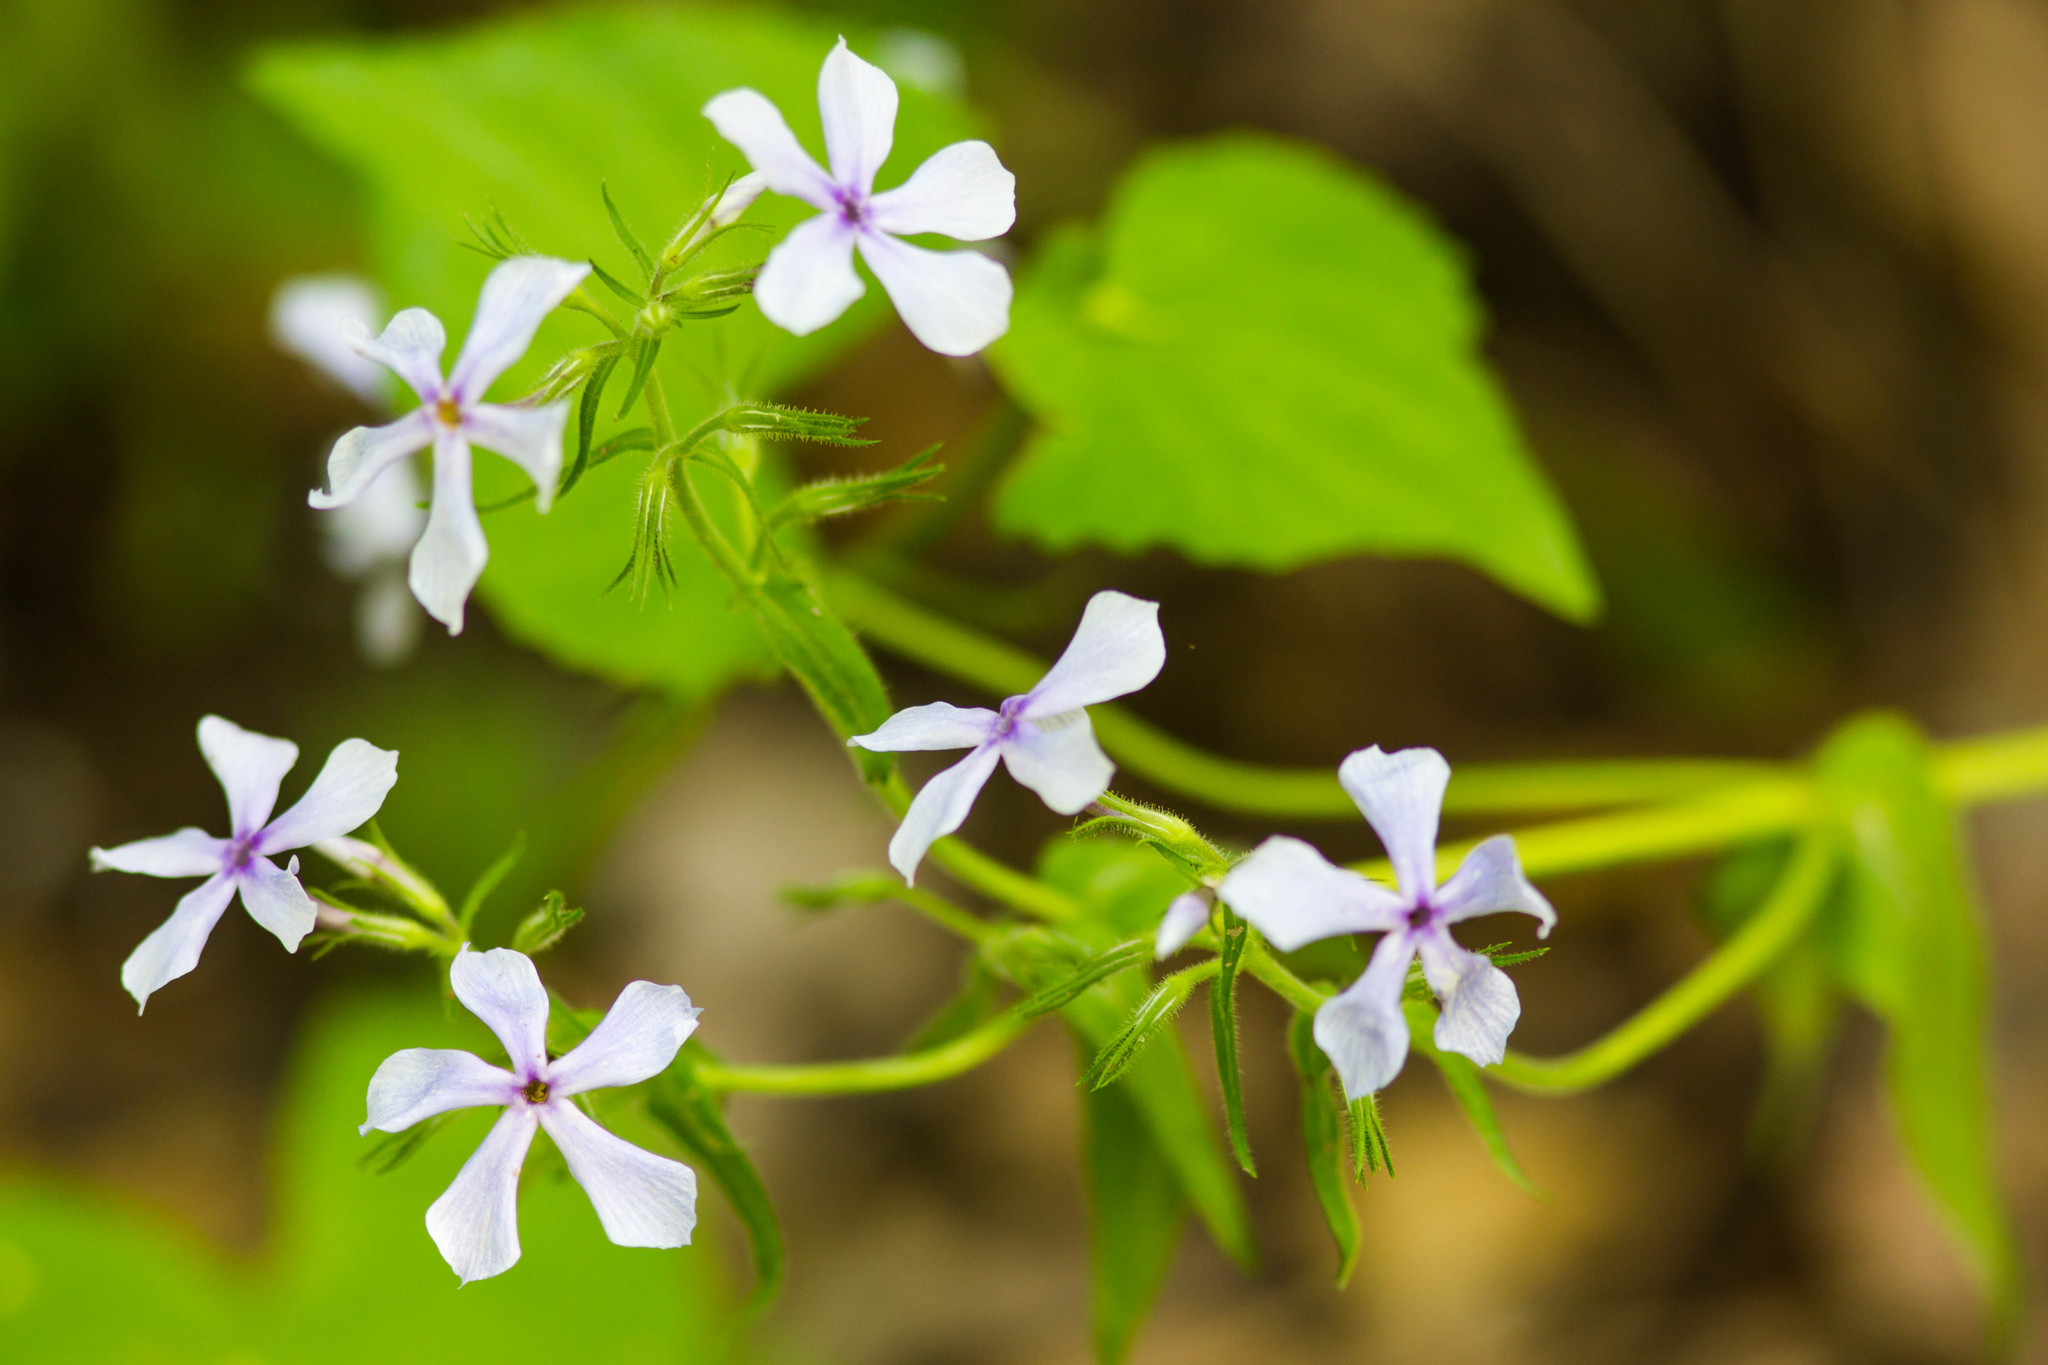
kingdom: Plantae
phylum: Tracheophyta
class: Magnoliopsida
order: Ericales
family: Polemoniaceae
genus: Phlox
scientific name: Phlox divaricata
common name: Blue phlox
